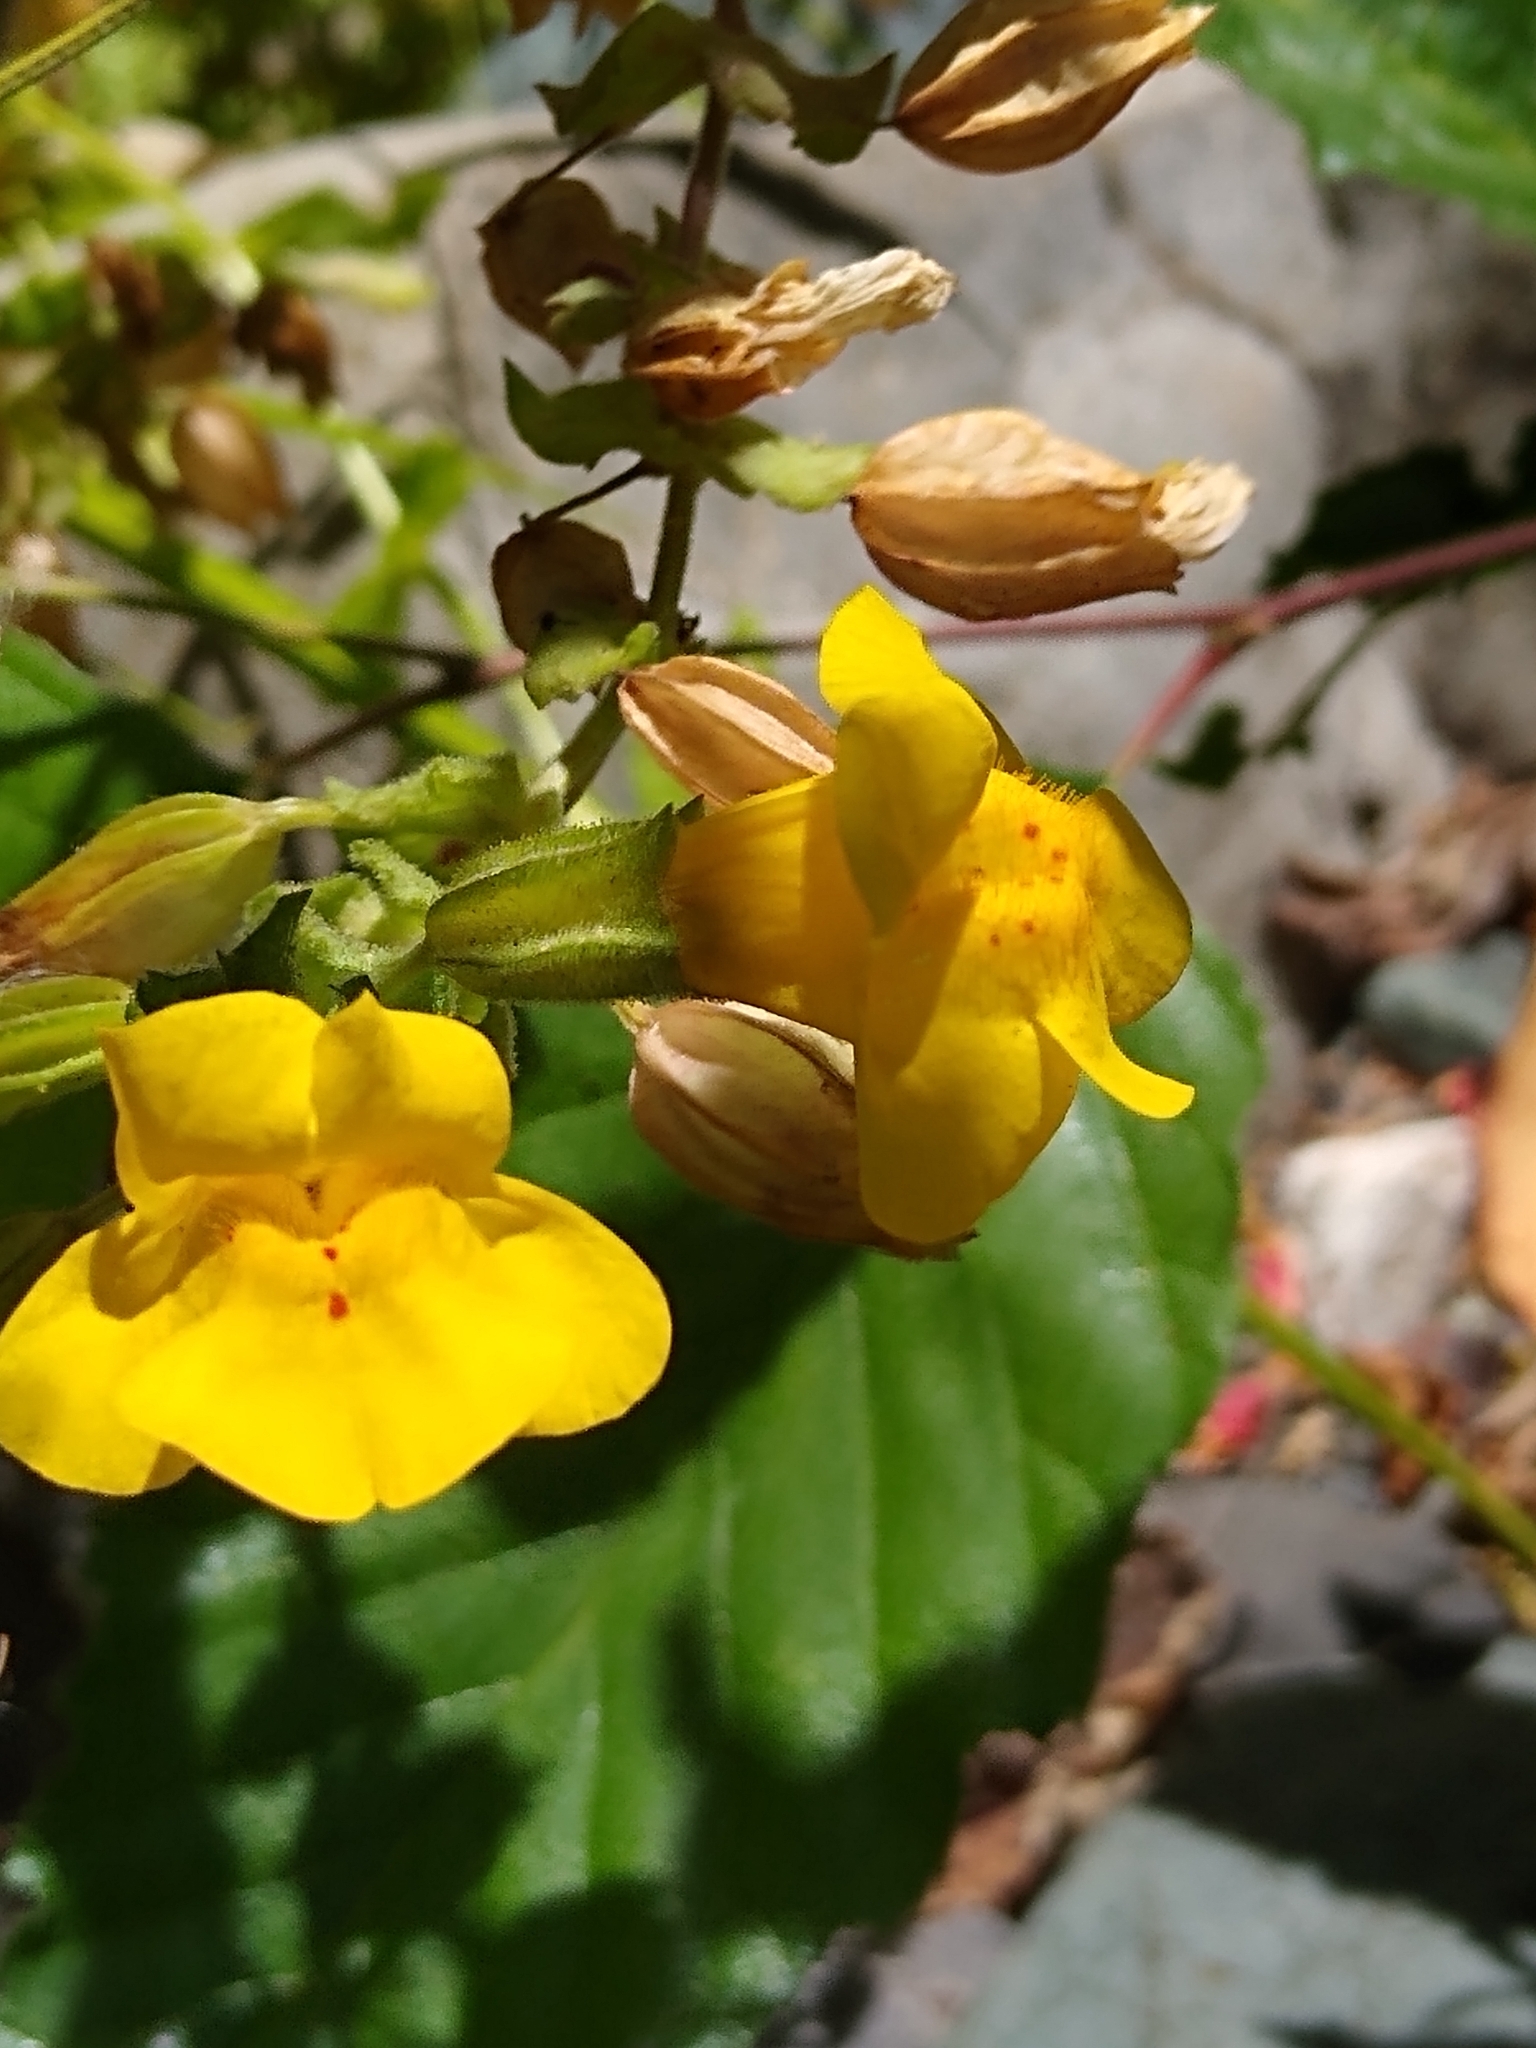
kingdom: Plantae
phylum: Tracheophyta
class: Magnoliopsida
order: Lamiales
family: Phrymaceae
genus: Erythranthe
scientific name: Erythranthe guttata
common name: Monkeyflower
